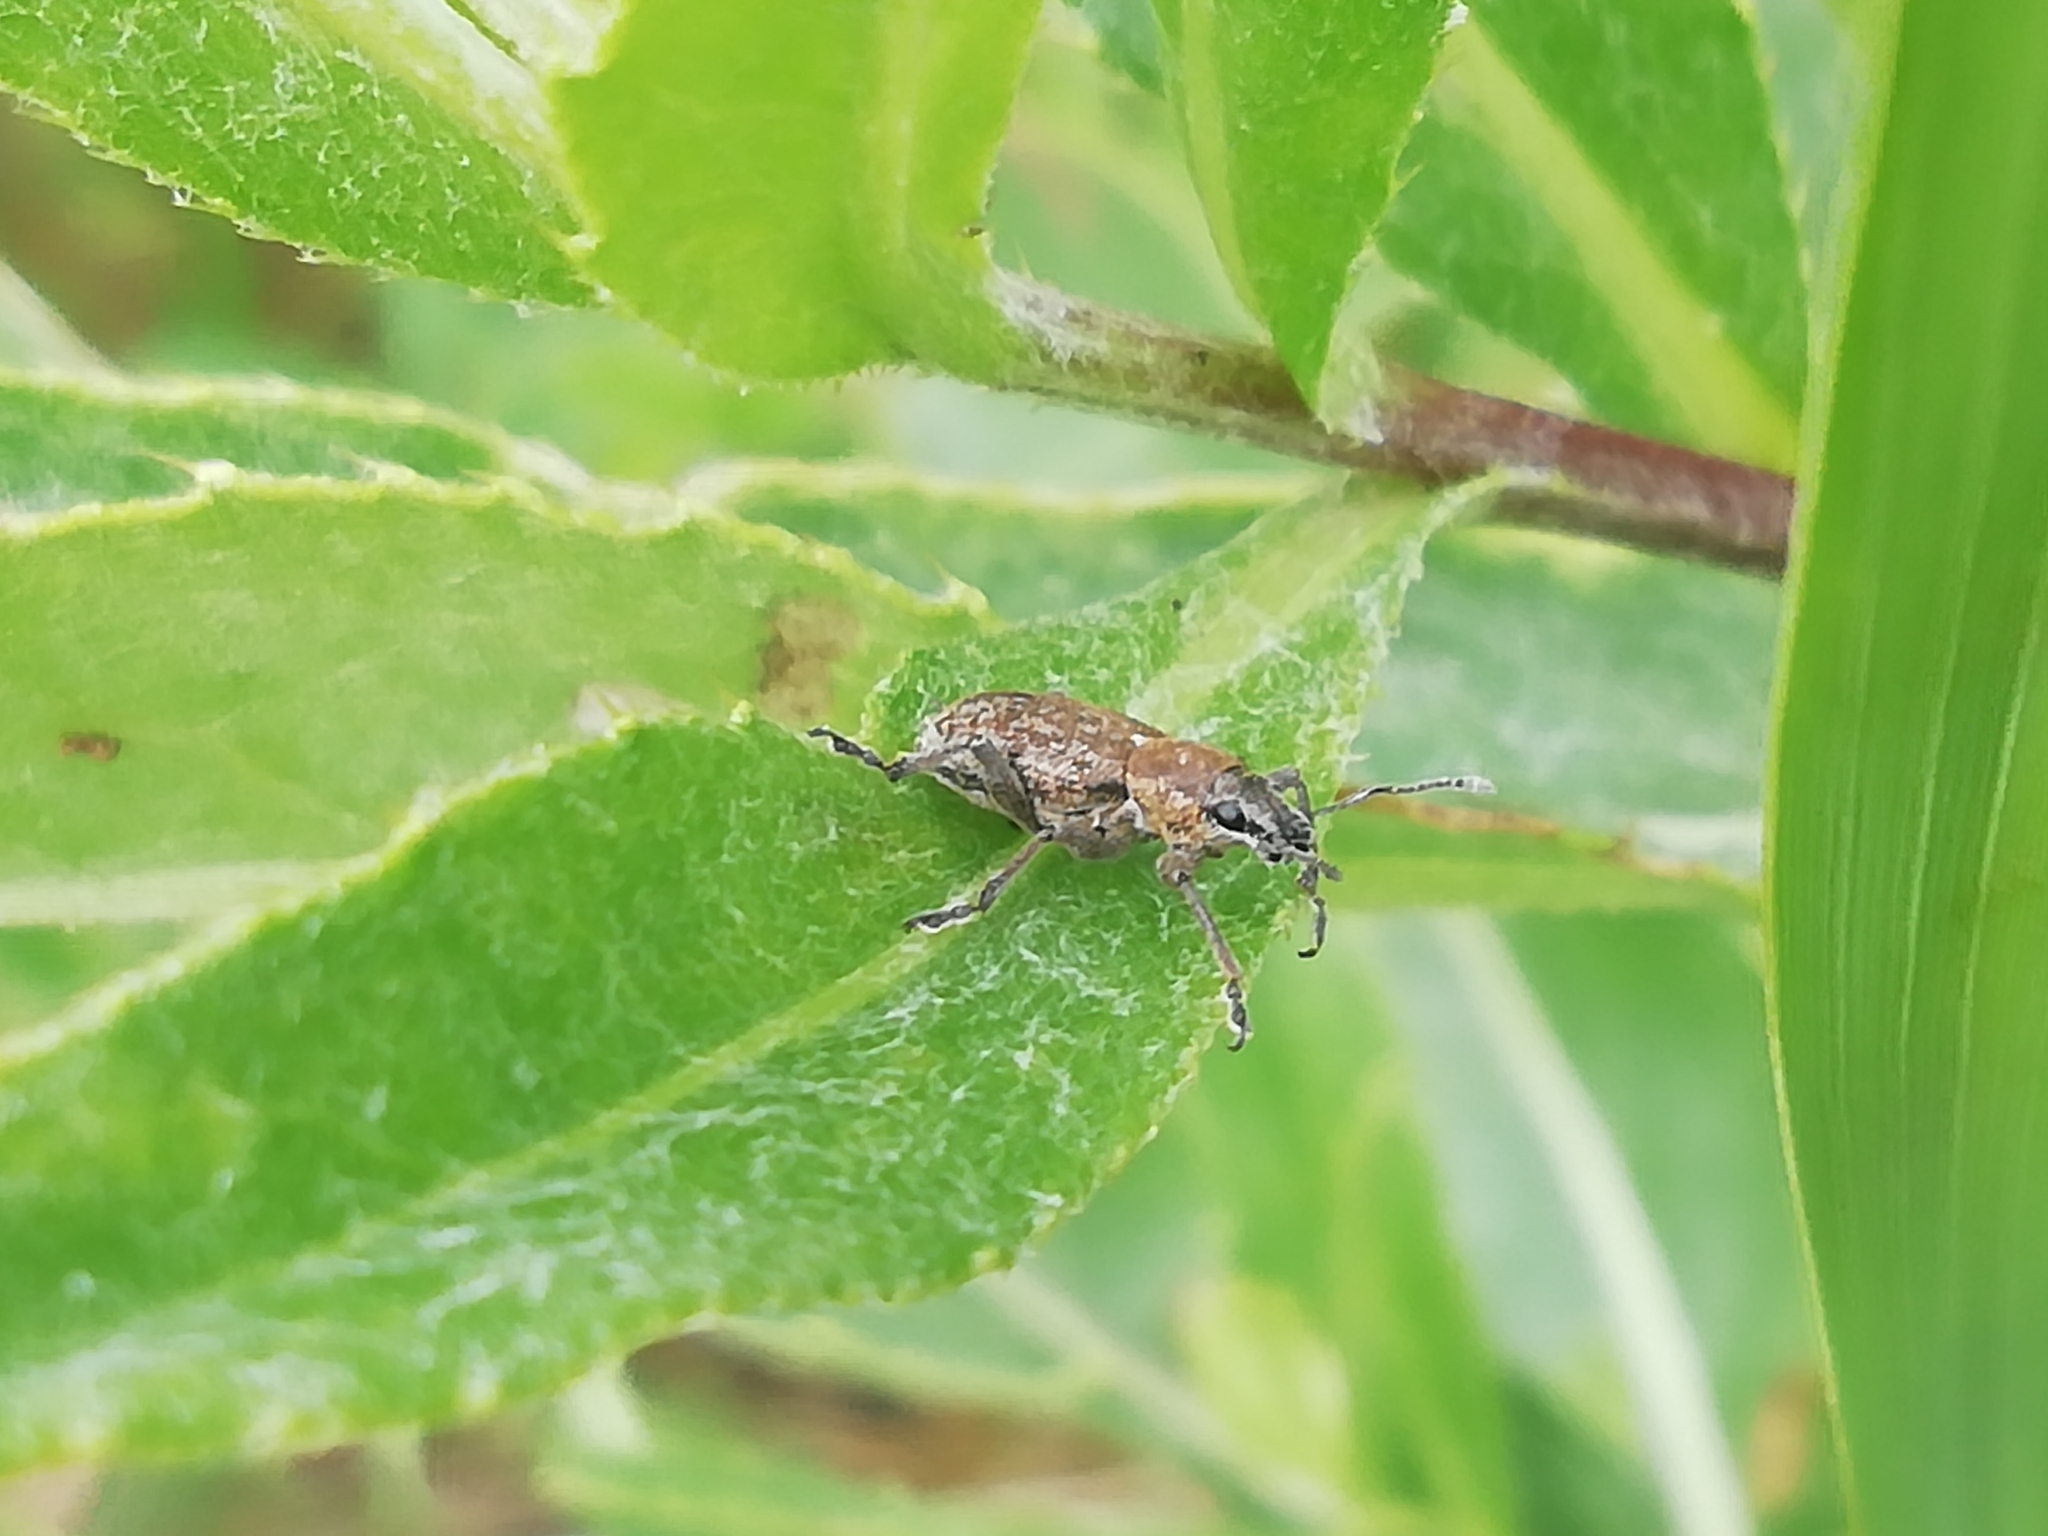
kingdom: Animalia
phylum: Arthropoda
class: Insecta
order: Coleoptera
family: Curculionidae
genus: Tanymecus
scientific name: Tanymecus palliatus
